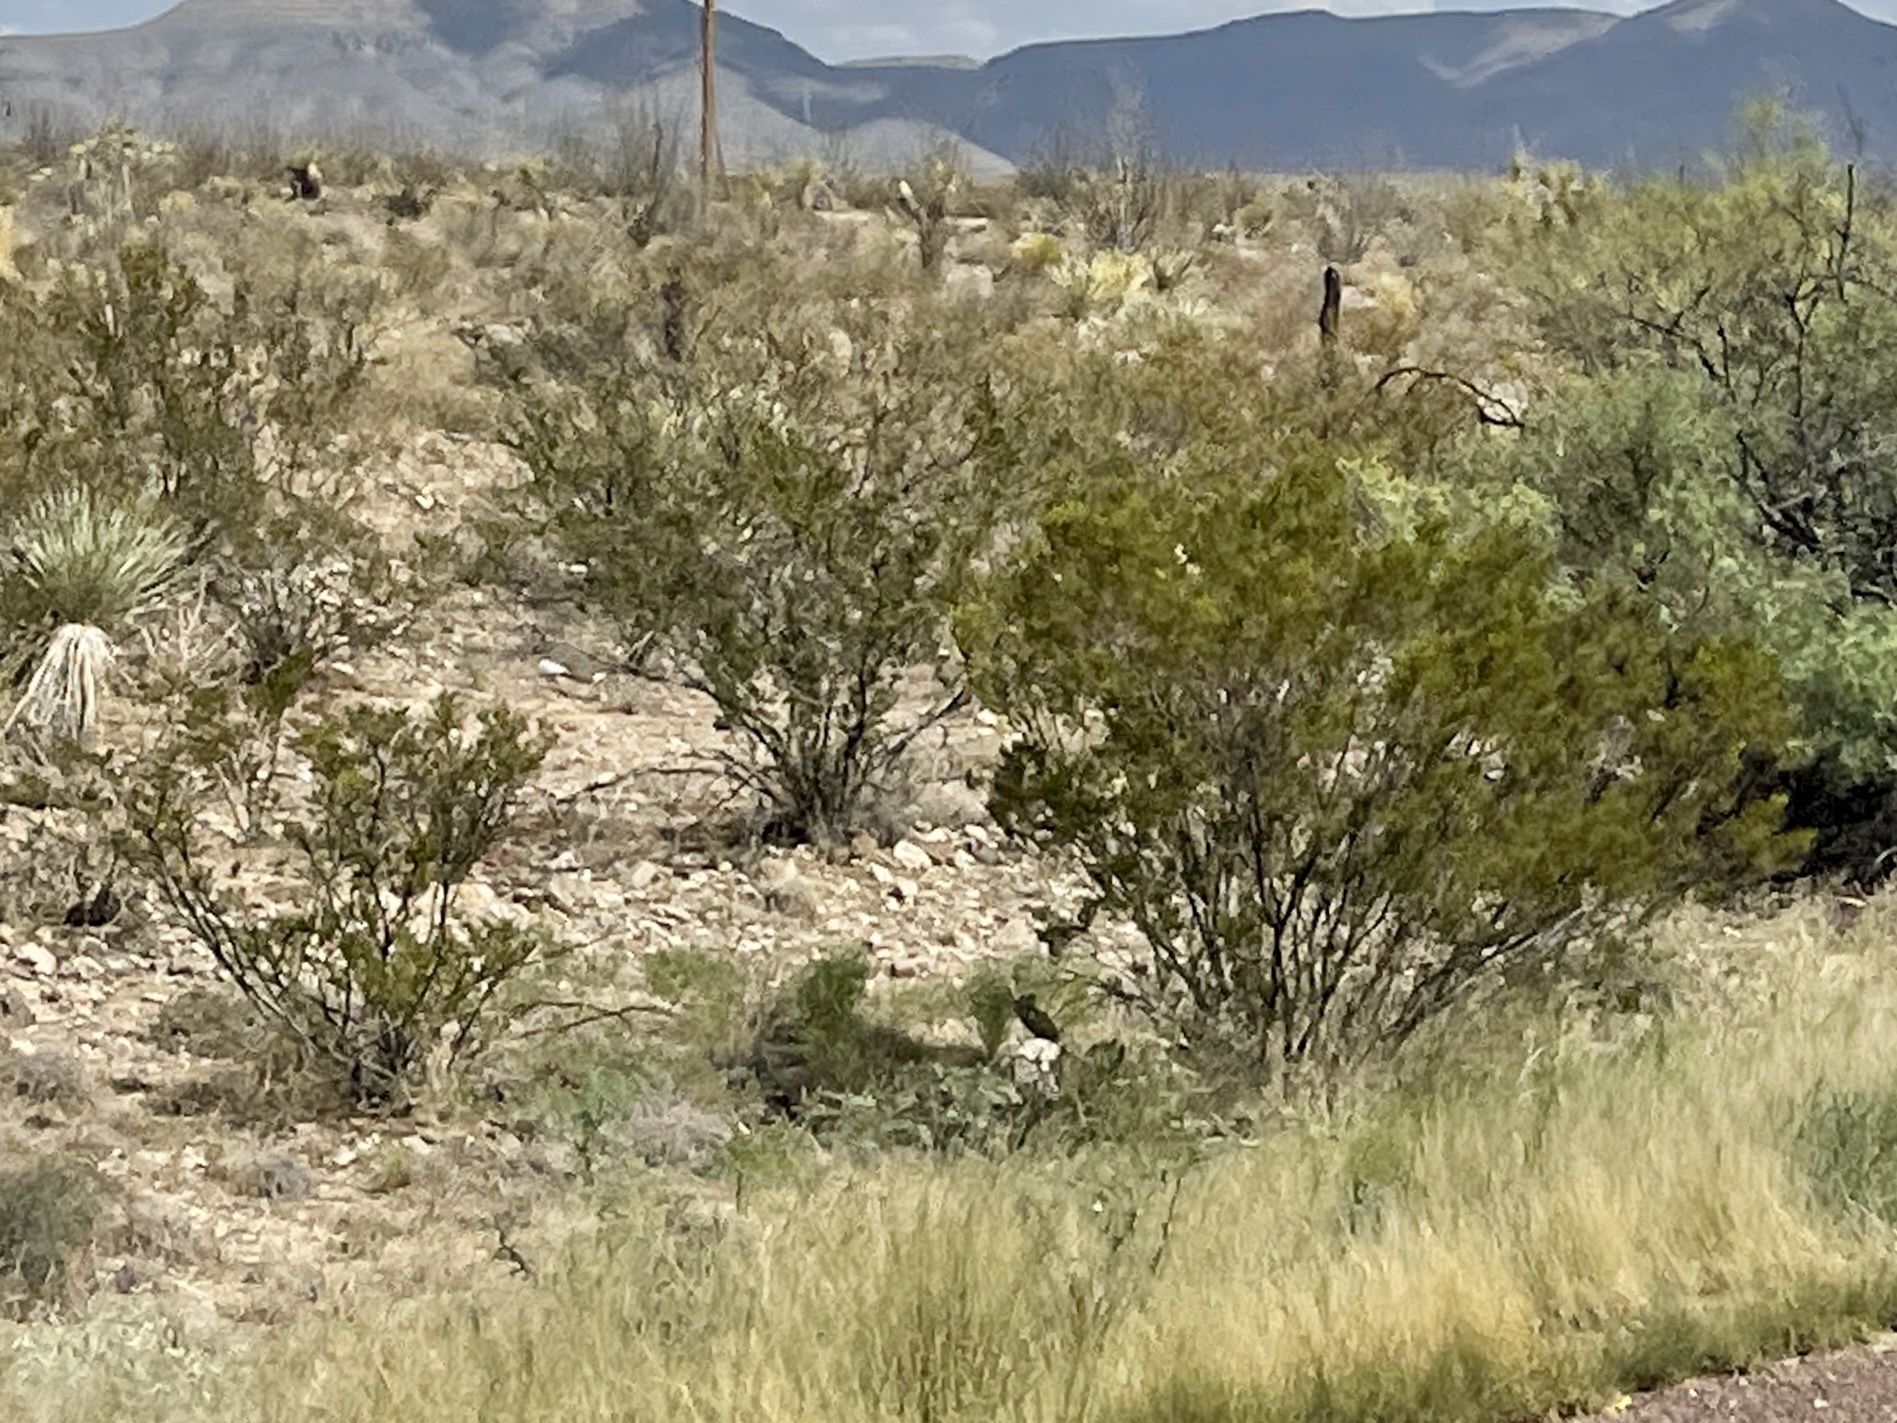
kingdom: Plantae
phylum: Tracheophyta
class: Magnoliopsida
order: Zygophyllales
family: Zygophyllaceae
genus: Larrea
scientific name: Larrea tridentata
